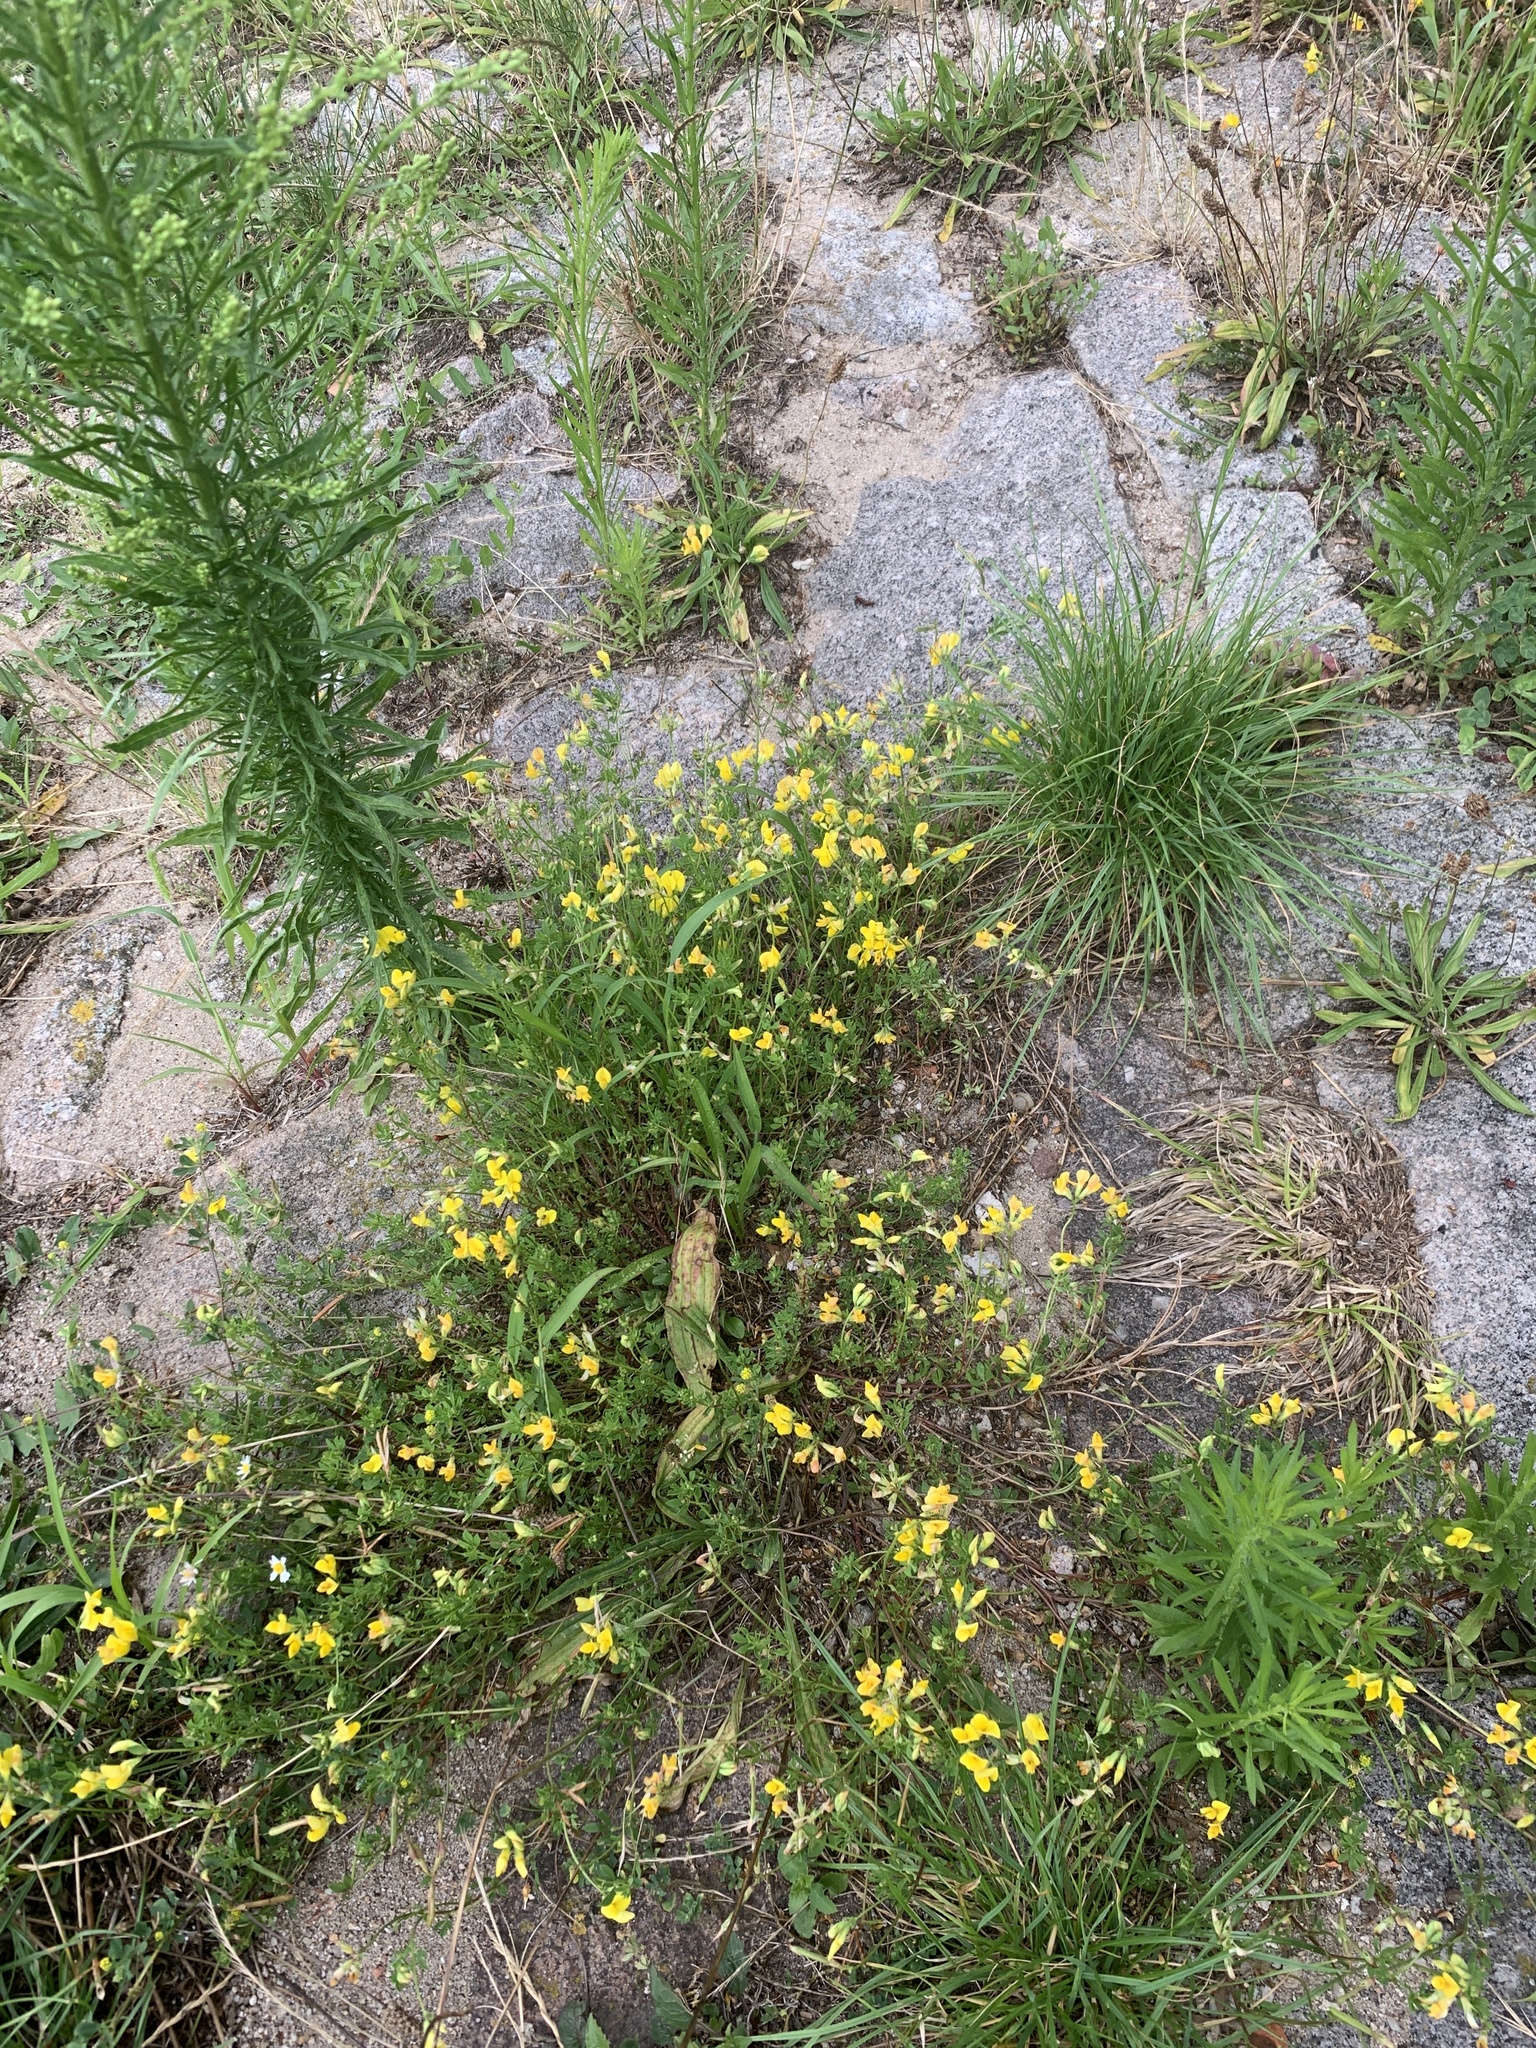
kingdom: Plantae
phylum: Tracheophyta
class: Magnoliopsida
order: Fabales
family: Fabaceae
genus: Lotus
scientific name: Lotus corniculatus
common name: Common bird's-foot-trefoil
